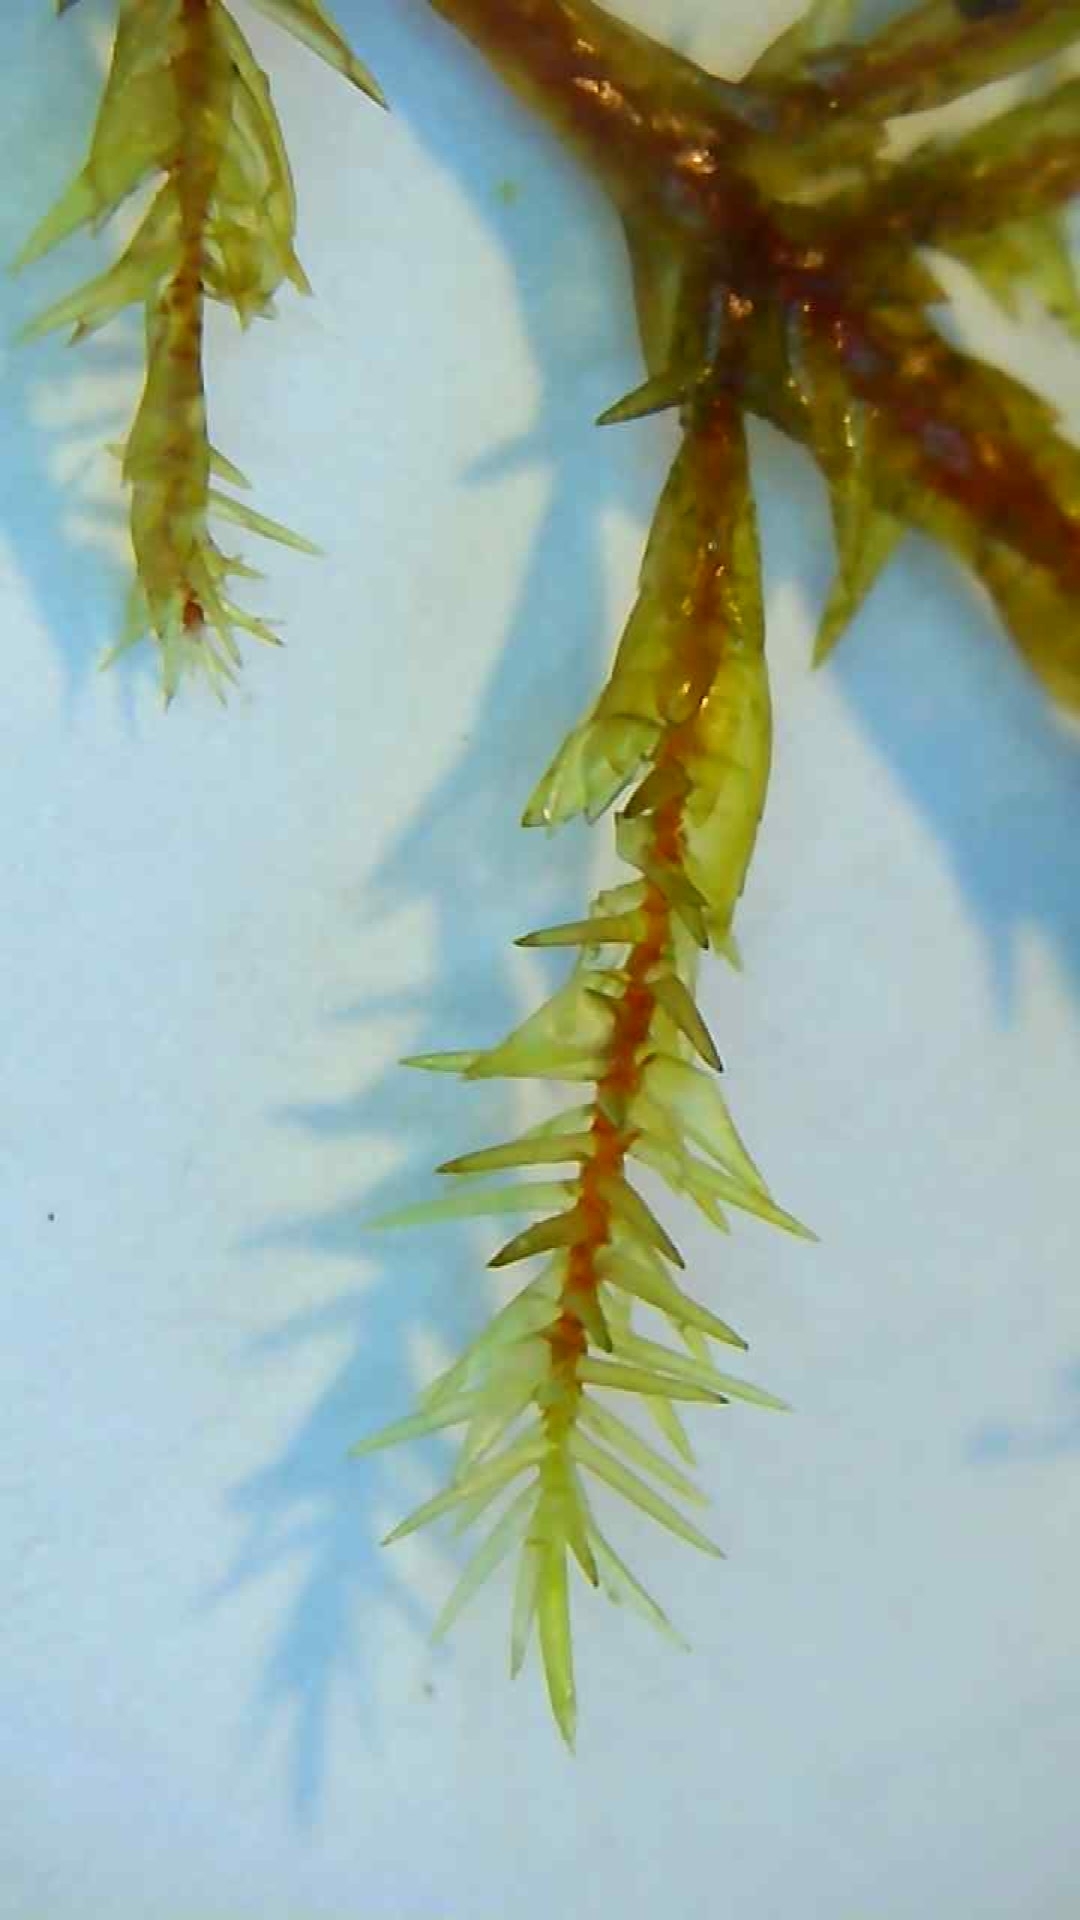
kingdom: Plantae
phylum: Bryophyta
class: Bryopsida
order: Hypnales
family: Pylaisiaceae
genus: Calliergonella
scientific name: Calliergonella cuspidata
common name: Common large wetland moss
